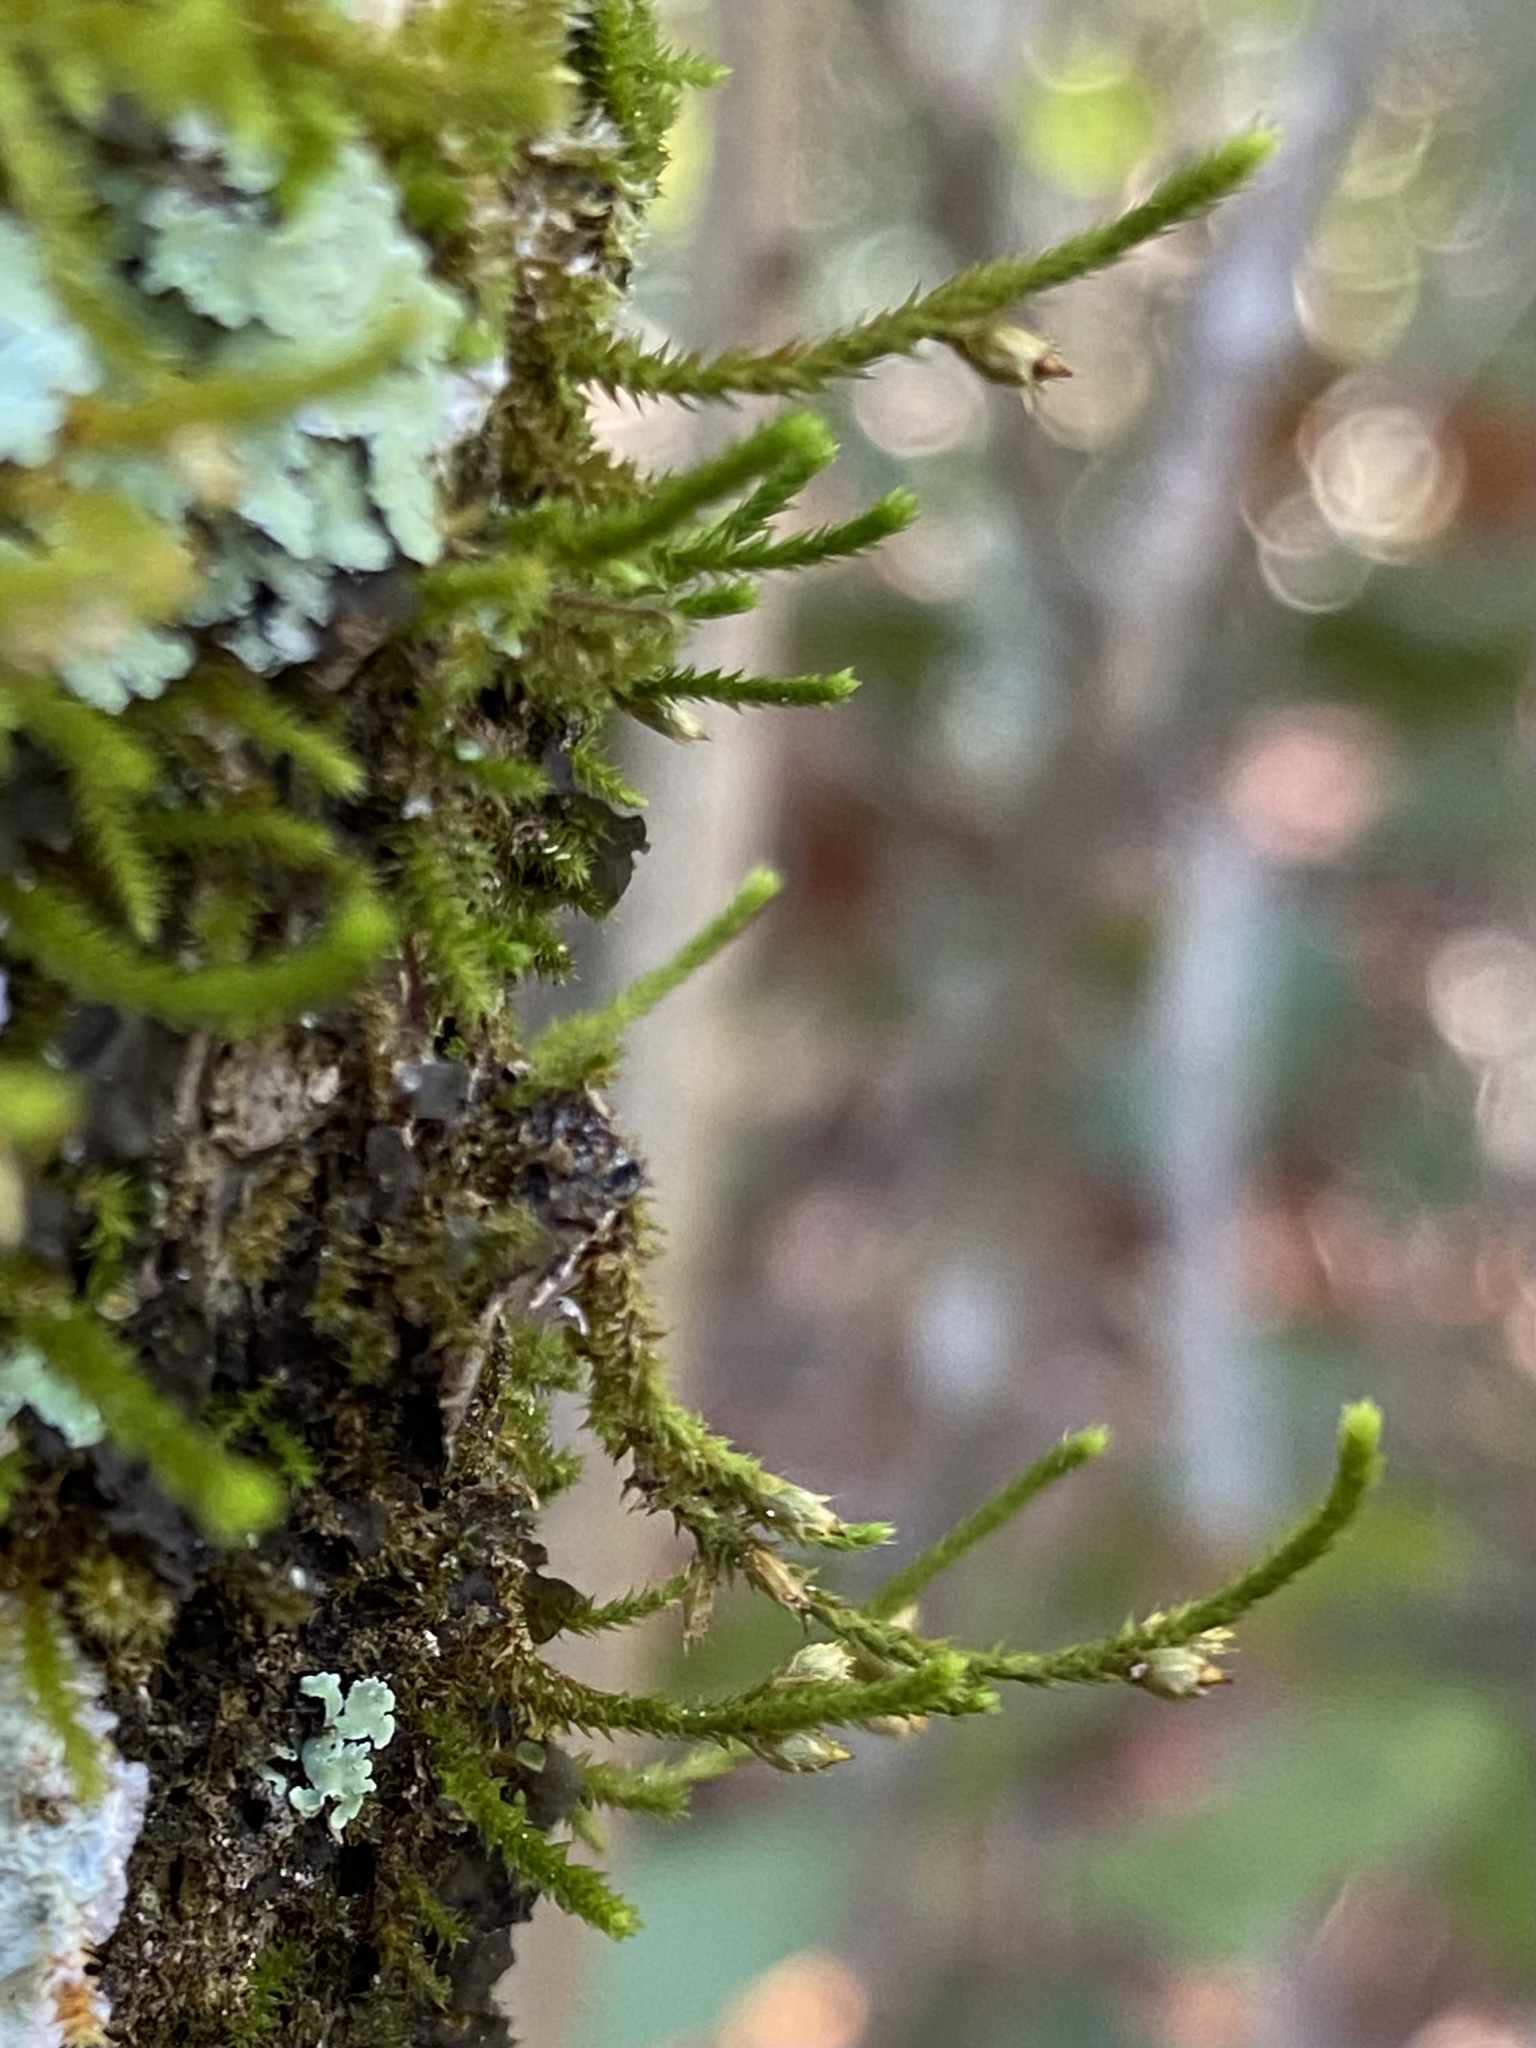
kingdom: Plantae
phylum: Bryophyta
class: Bryopsida
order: Hypnales
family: Cryphaeaceae
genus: Cryphaea
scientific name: Cryphaea glomerata
